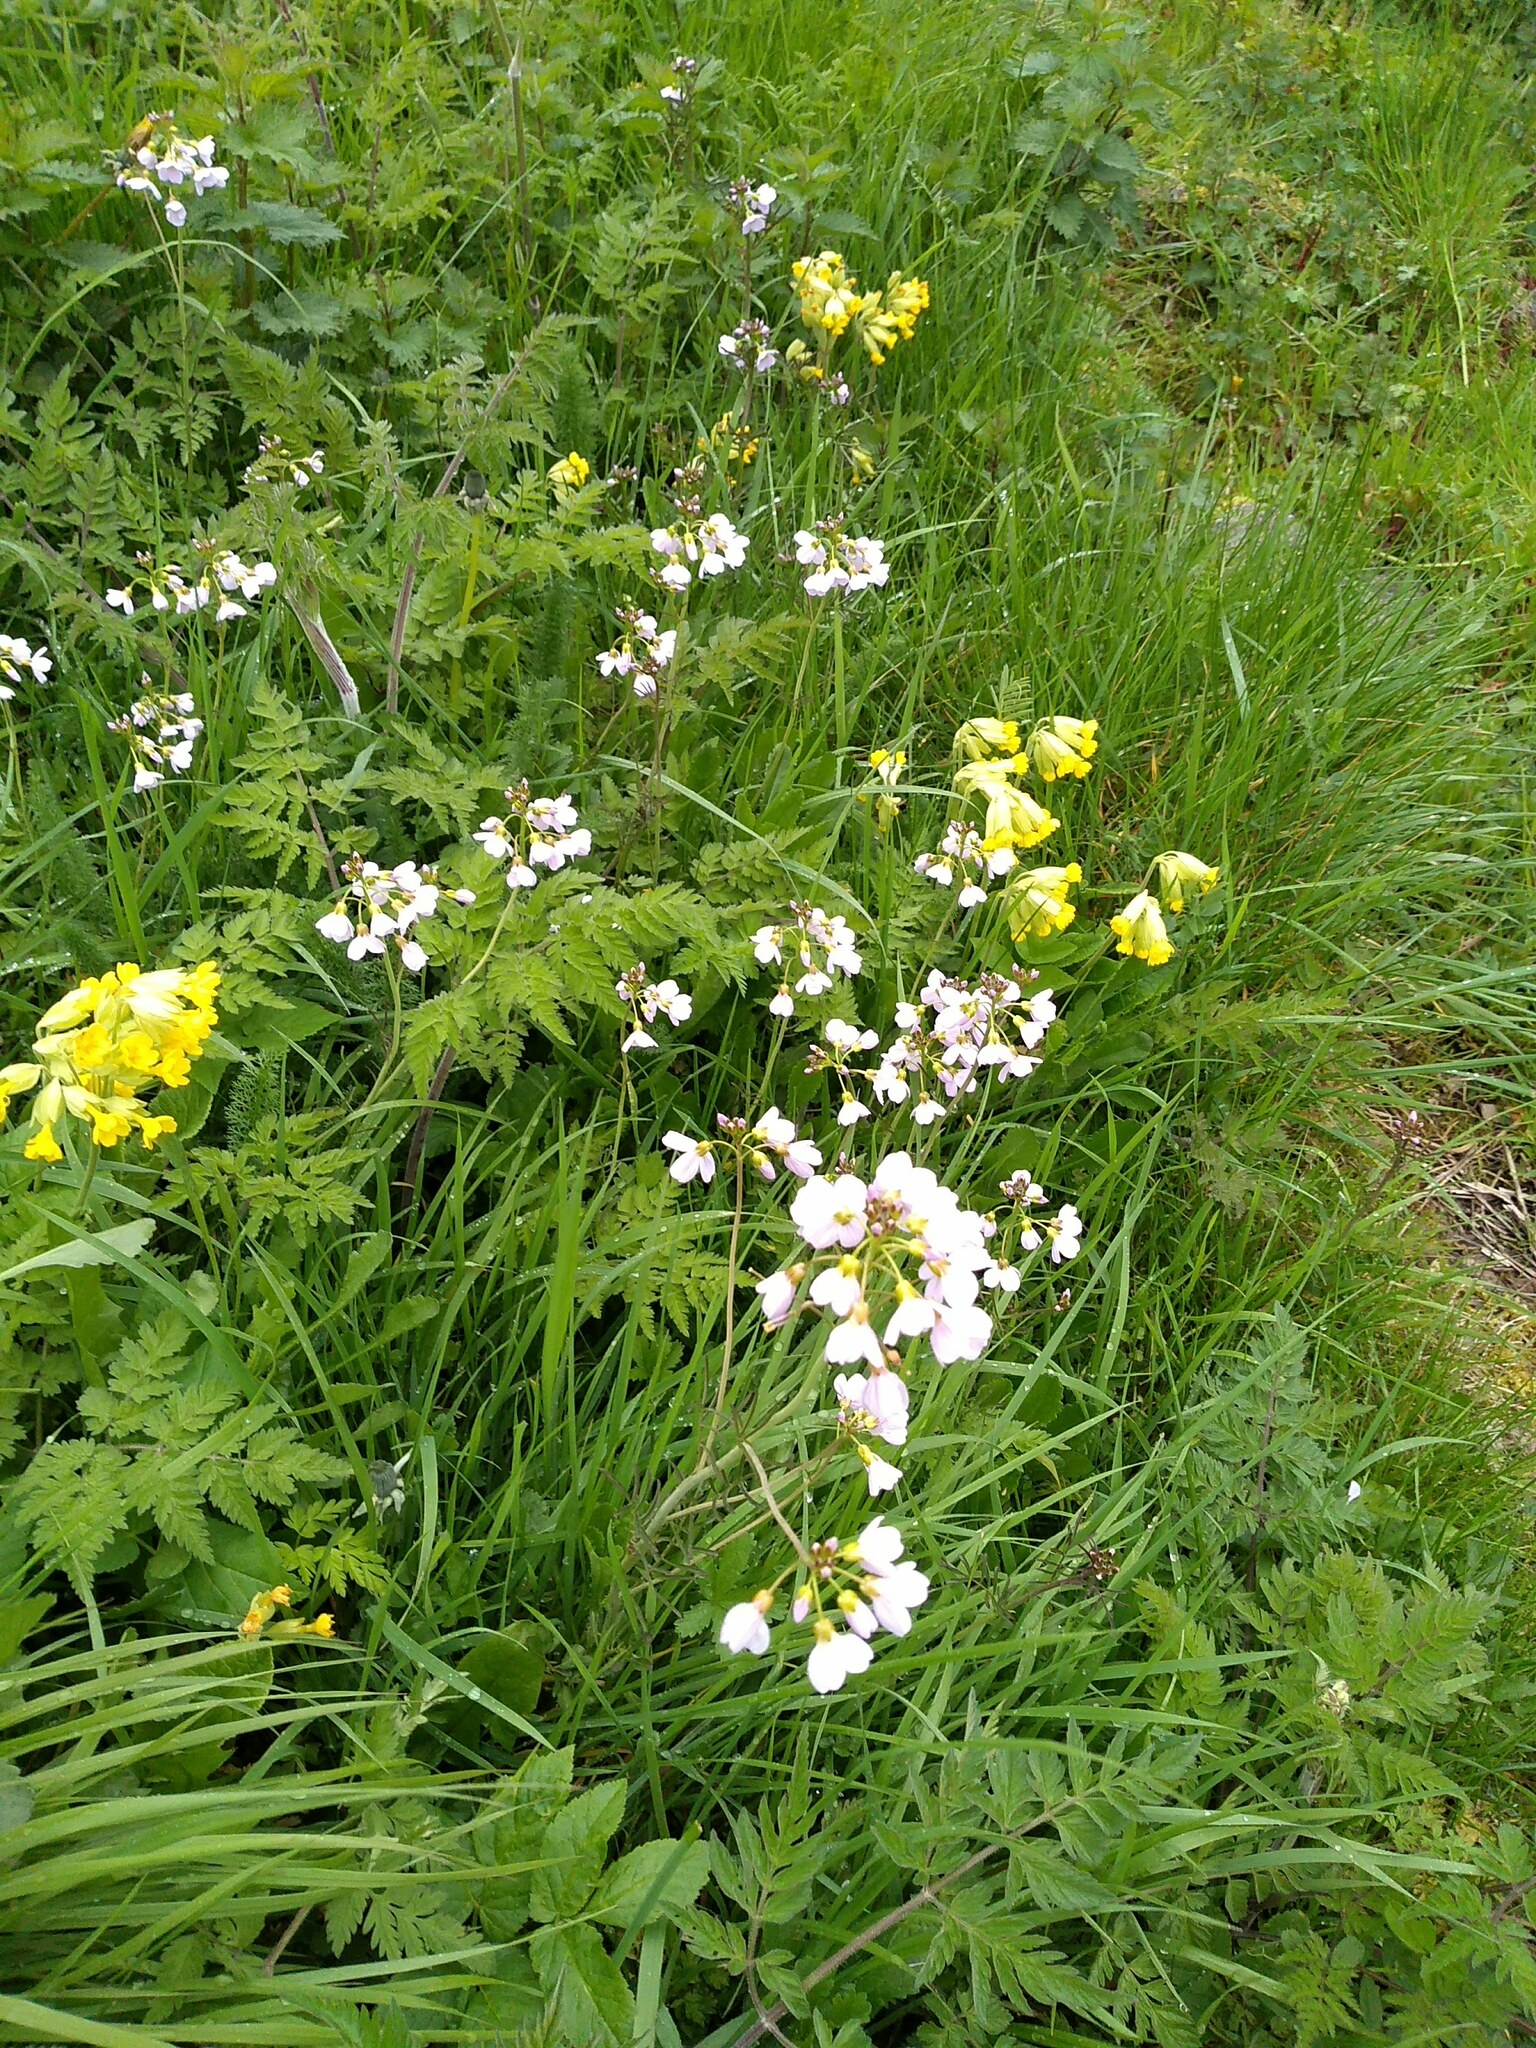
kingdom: Plantae
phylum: Tracheophyta
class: Magnoliopsida
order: Brassicales
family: Brassicaceae
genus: Cardamine
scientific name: Cardamine pratensis
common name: Cuckoo flower
